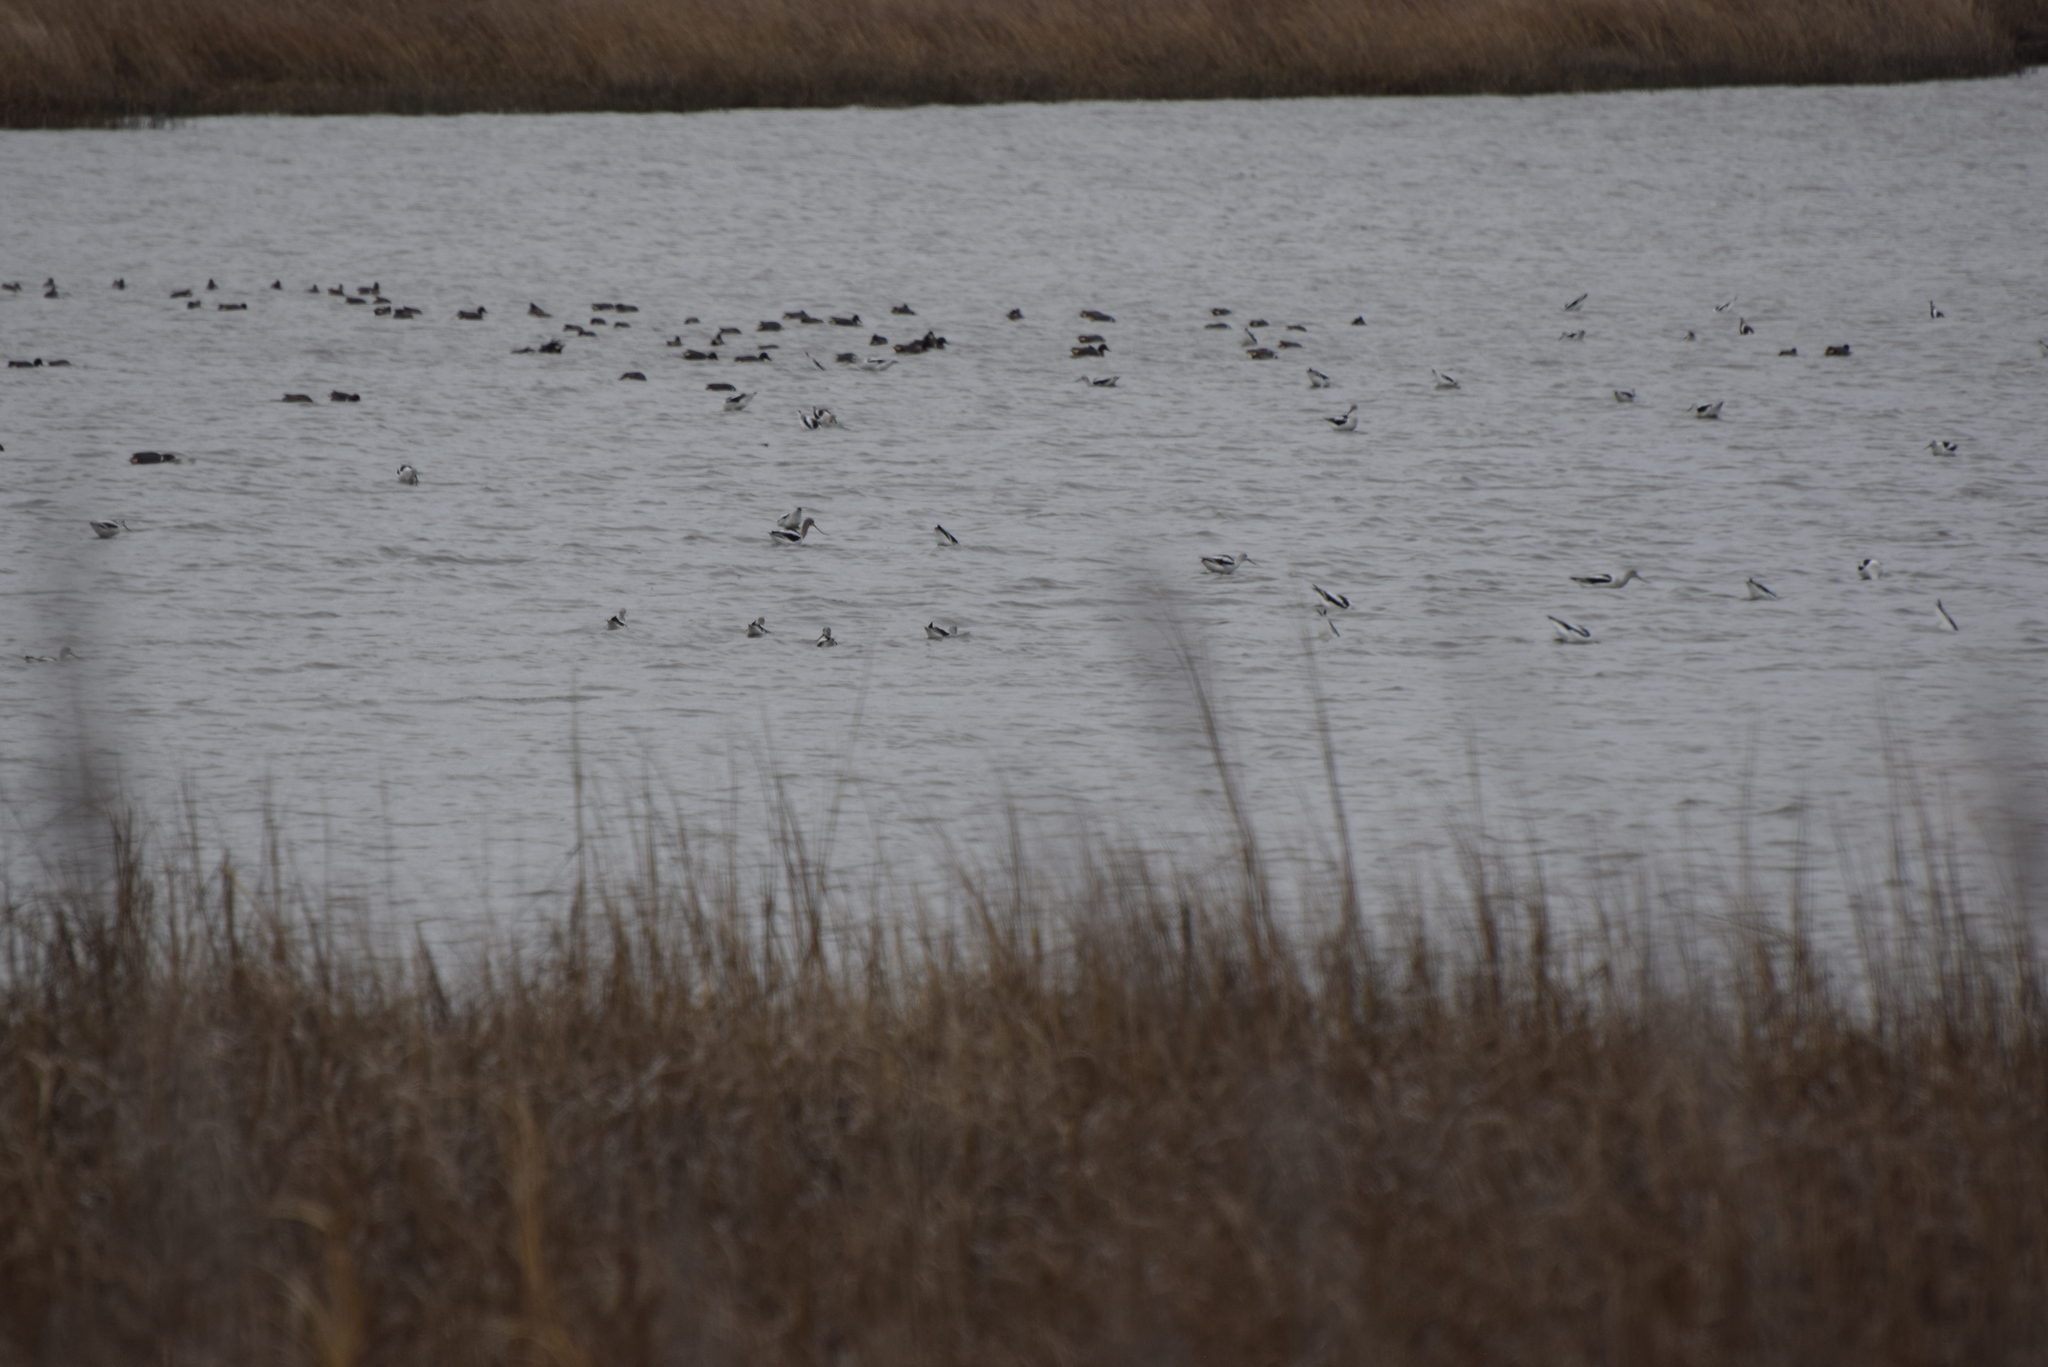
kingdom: Animalia
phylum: Chordata
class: Aves
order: Charadriiformes
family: Recurvirostridae
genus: Recurvirostra
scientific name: Recurvirostra americana
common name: American avocet
